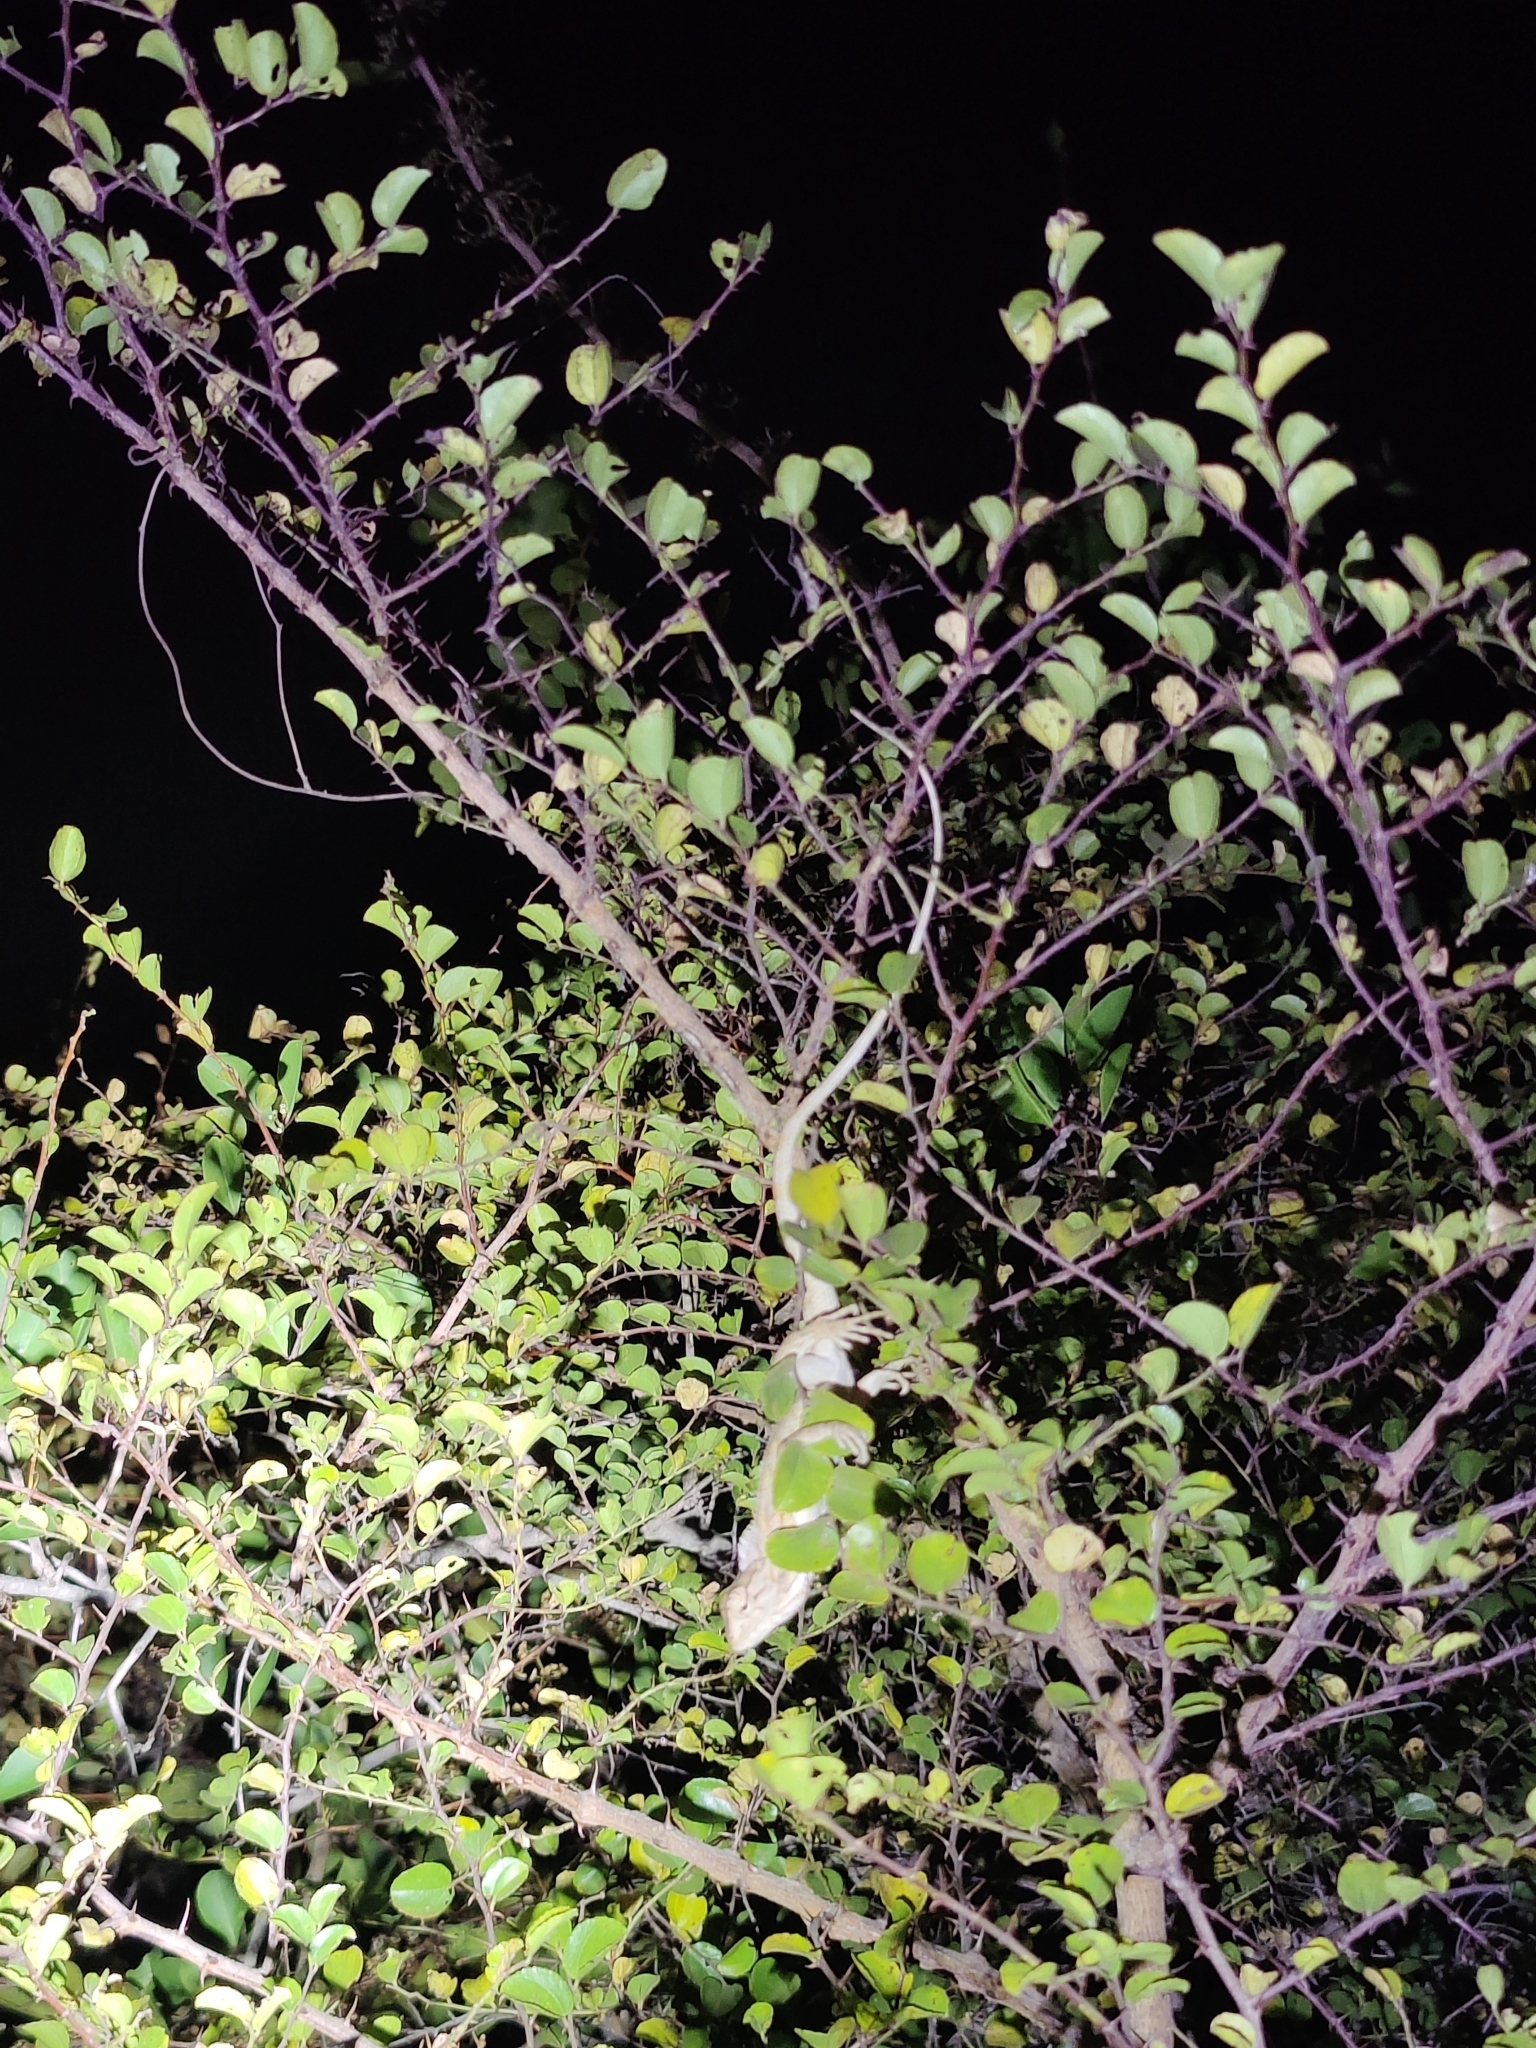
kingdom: Animalia
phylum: Chordata
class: Squamata
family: Agamidae
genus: Calotes
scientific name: Calotes versicolor
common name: Oriental garden lizard
